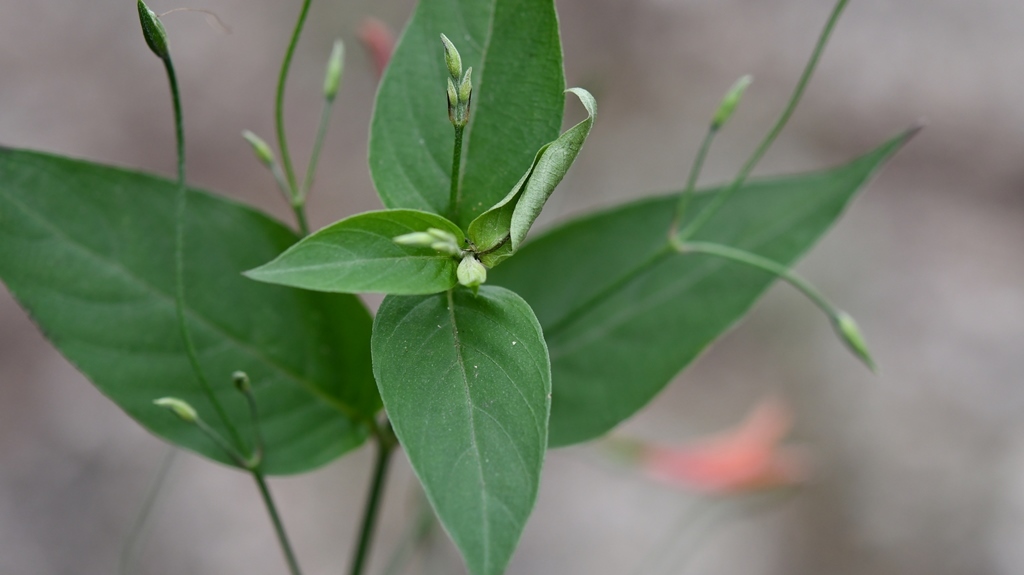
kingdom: Plantae
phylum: Tracheophyta
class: Magnoliopsida
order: Lamiales
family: Acanthaceae
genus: Dicliptera
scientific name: Dicliptera sciadephora
